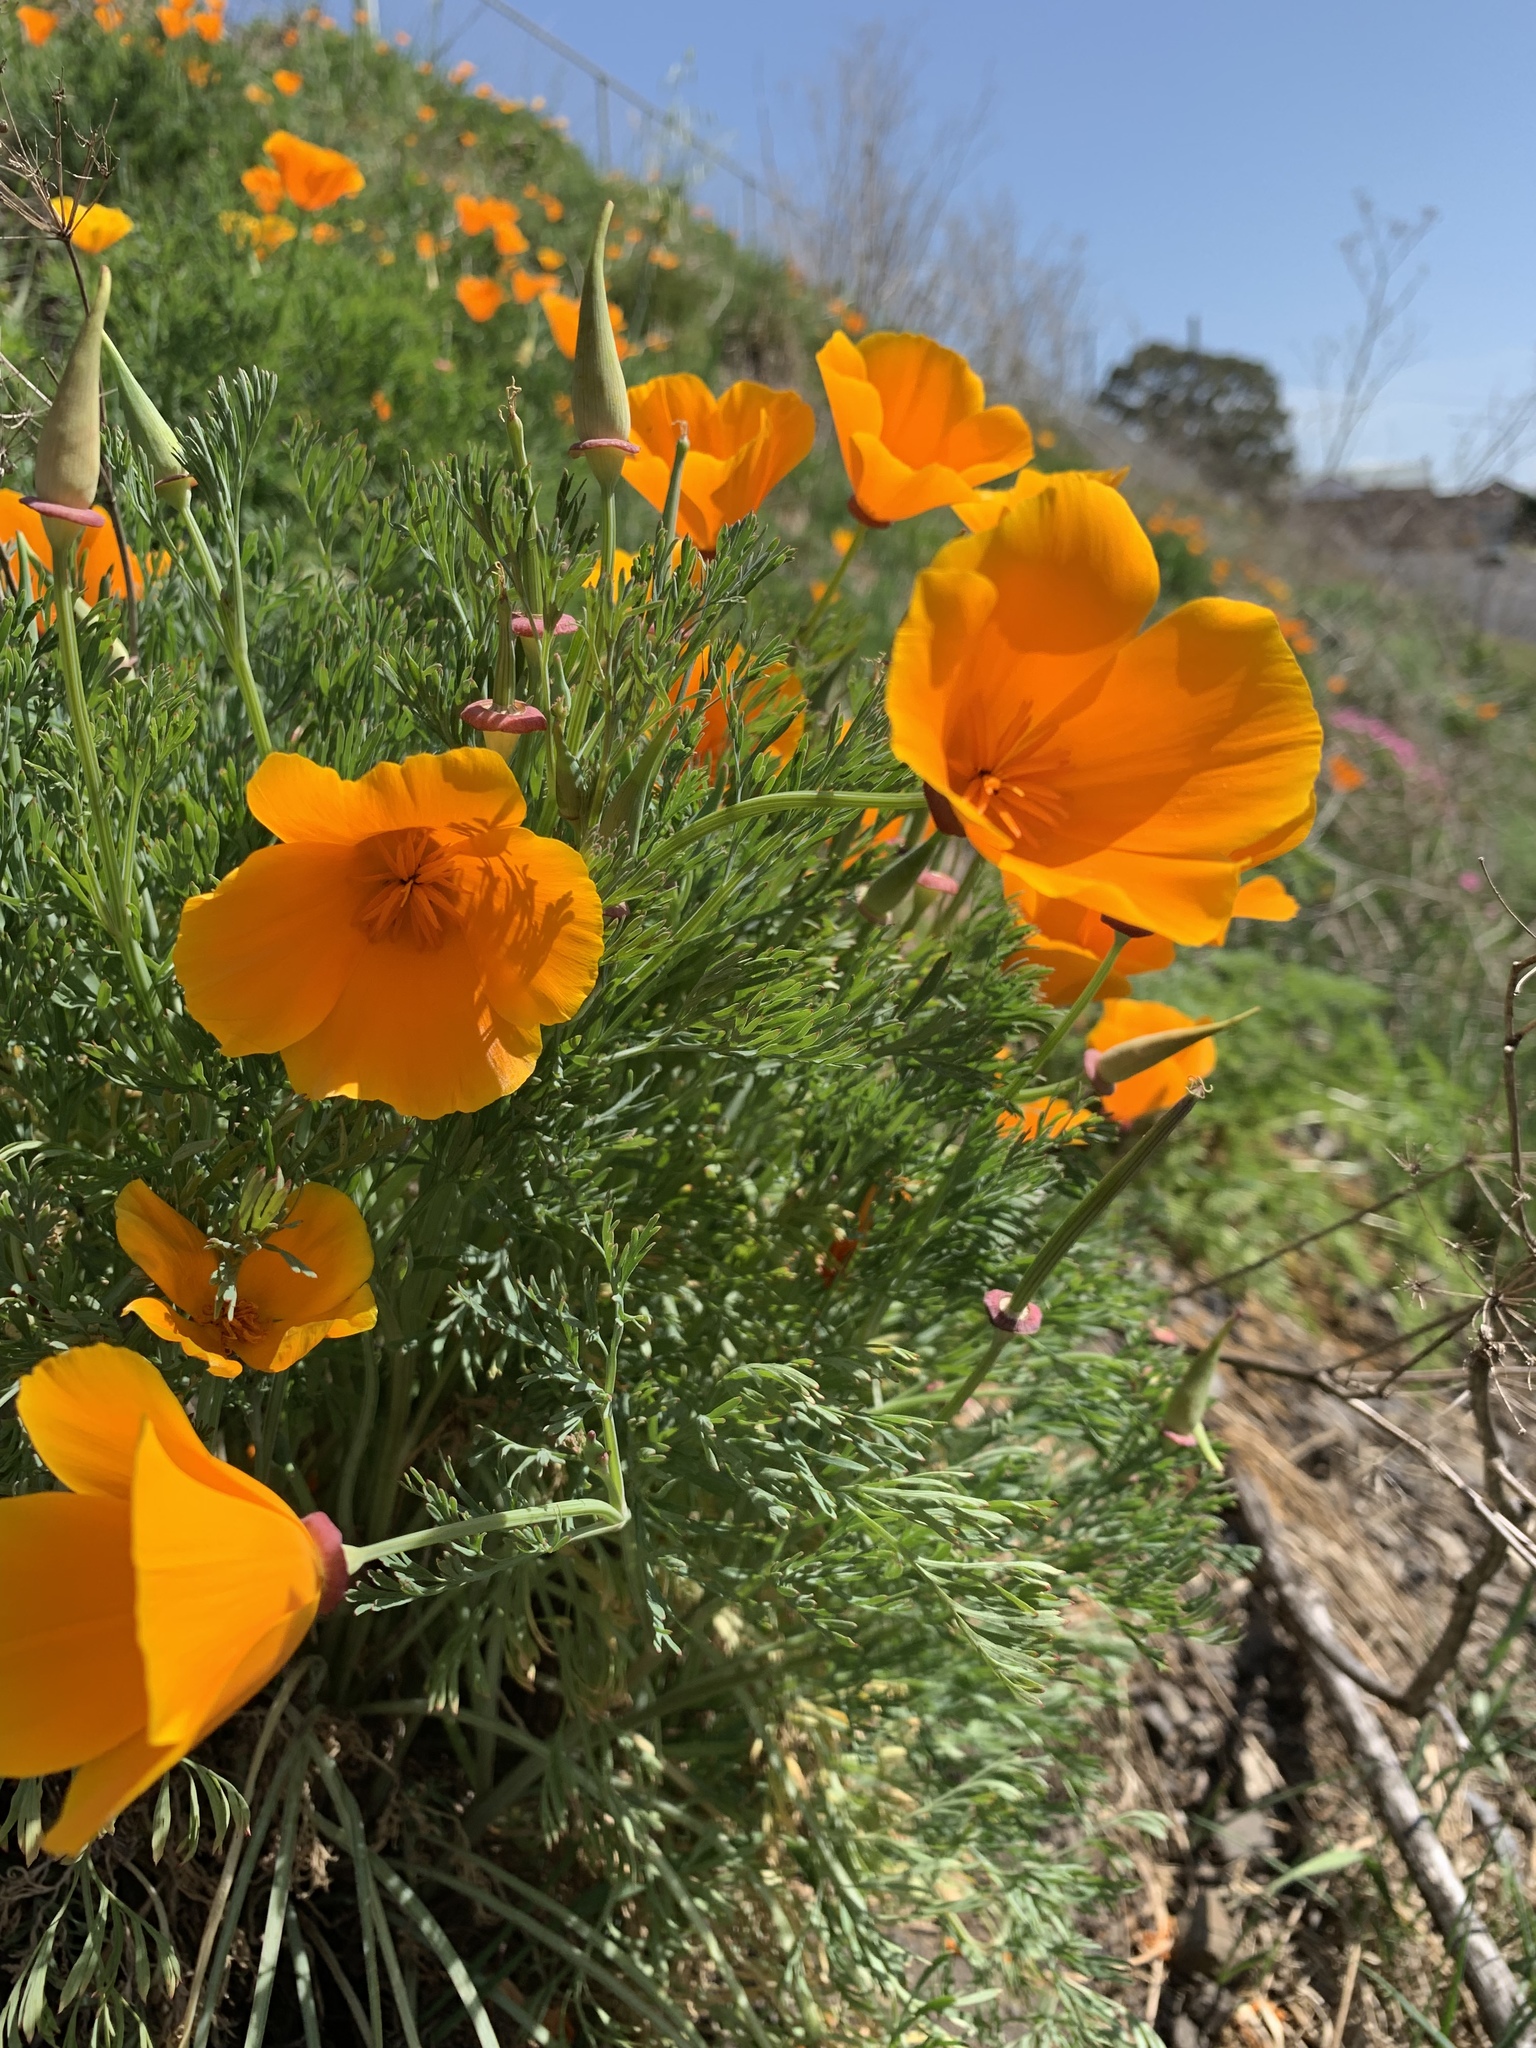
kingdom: Plantae
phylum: Tracheophyta
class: Magnoliopsida
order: Ranunculales
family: Papaveraceae
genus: Eschscholzia
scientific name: Eschscholzia californica
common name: California poppy
